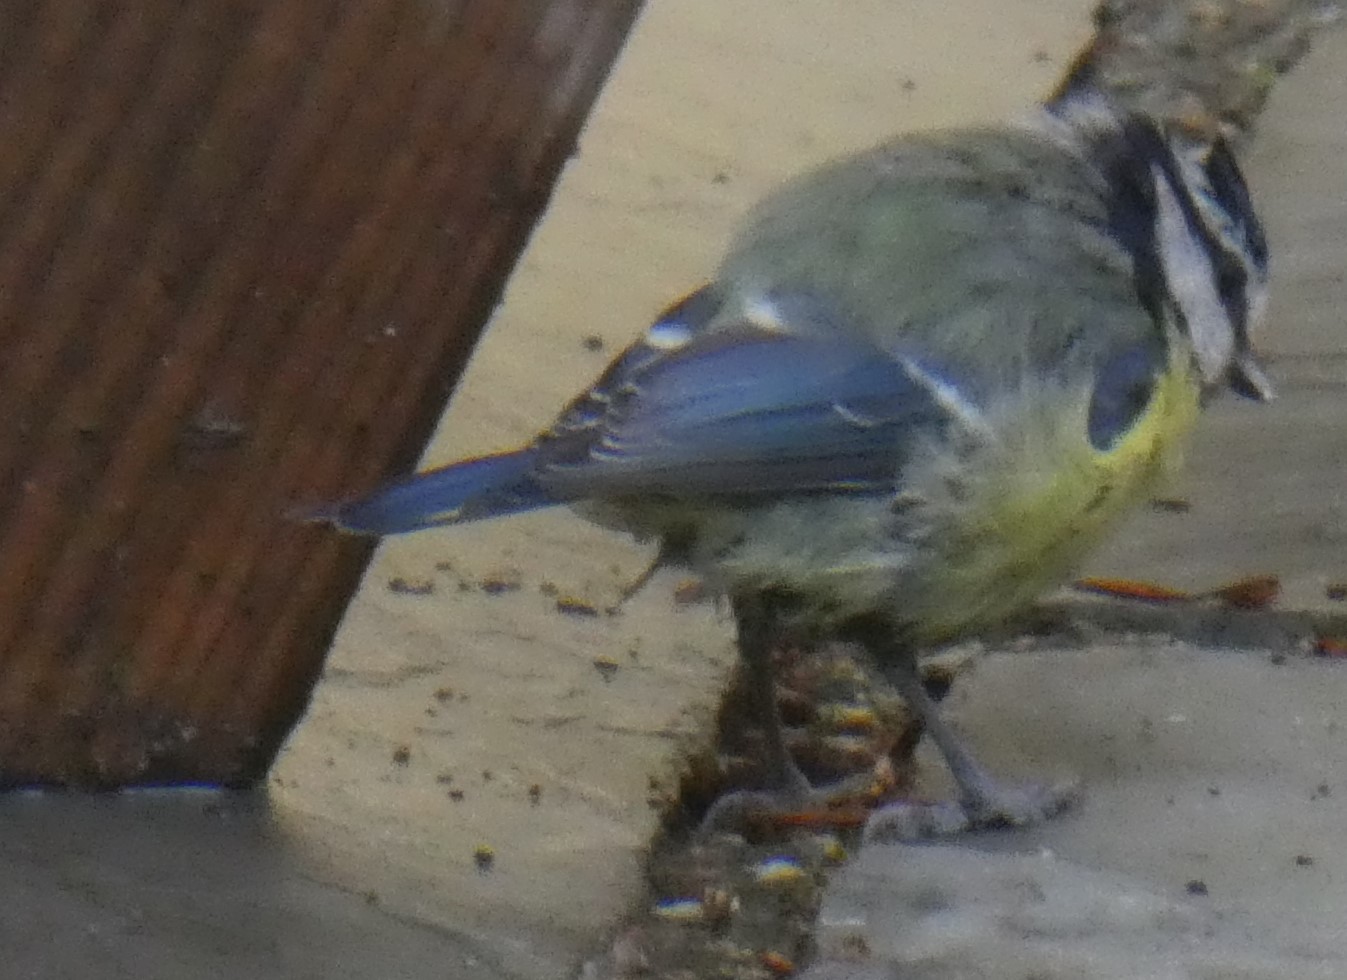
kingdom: Animalia
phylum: Chordata
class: Aves
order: Passeriformes
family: Paridae
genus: Cyanistes
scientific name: Cyanistes caeruleus
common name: Eurasian blue tit
